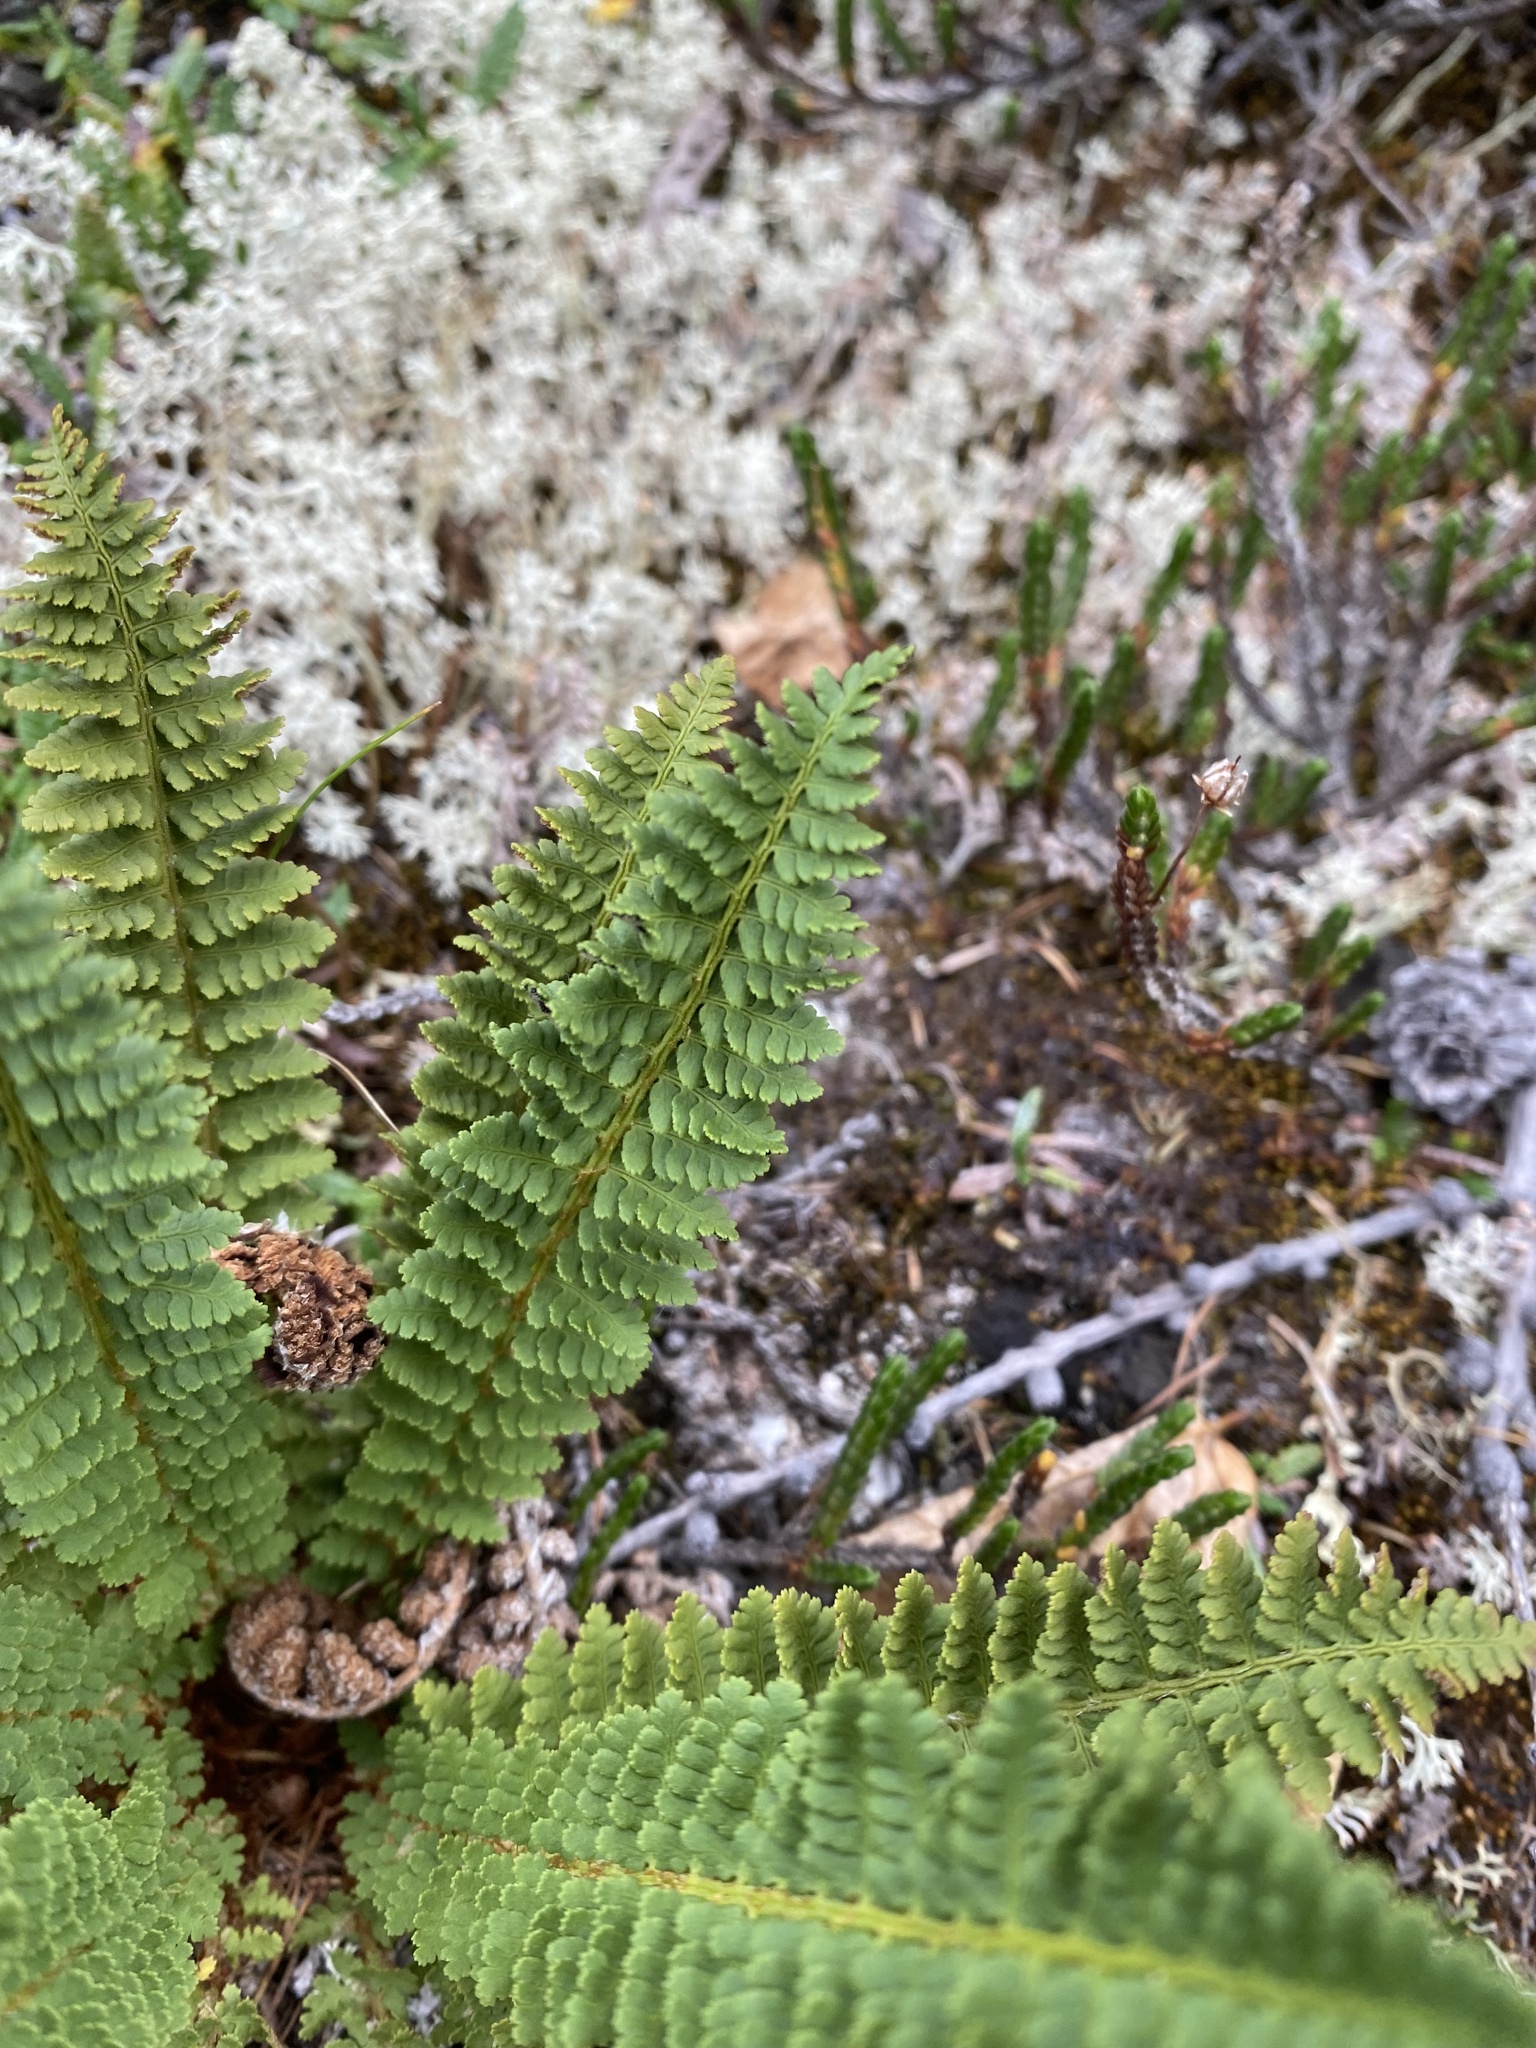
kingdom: Plantae
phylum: Tracheophyta
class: Polypodiopsida
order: Polypodiales
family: Dryopteridaceae
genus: Dryopteris
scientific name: Dryopteris fragrans
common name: Fragrant wood fern
